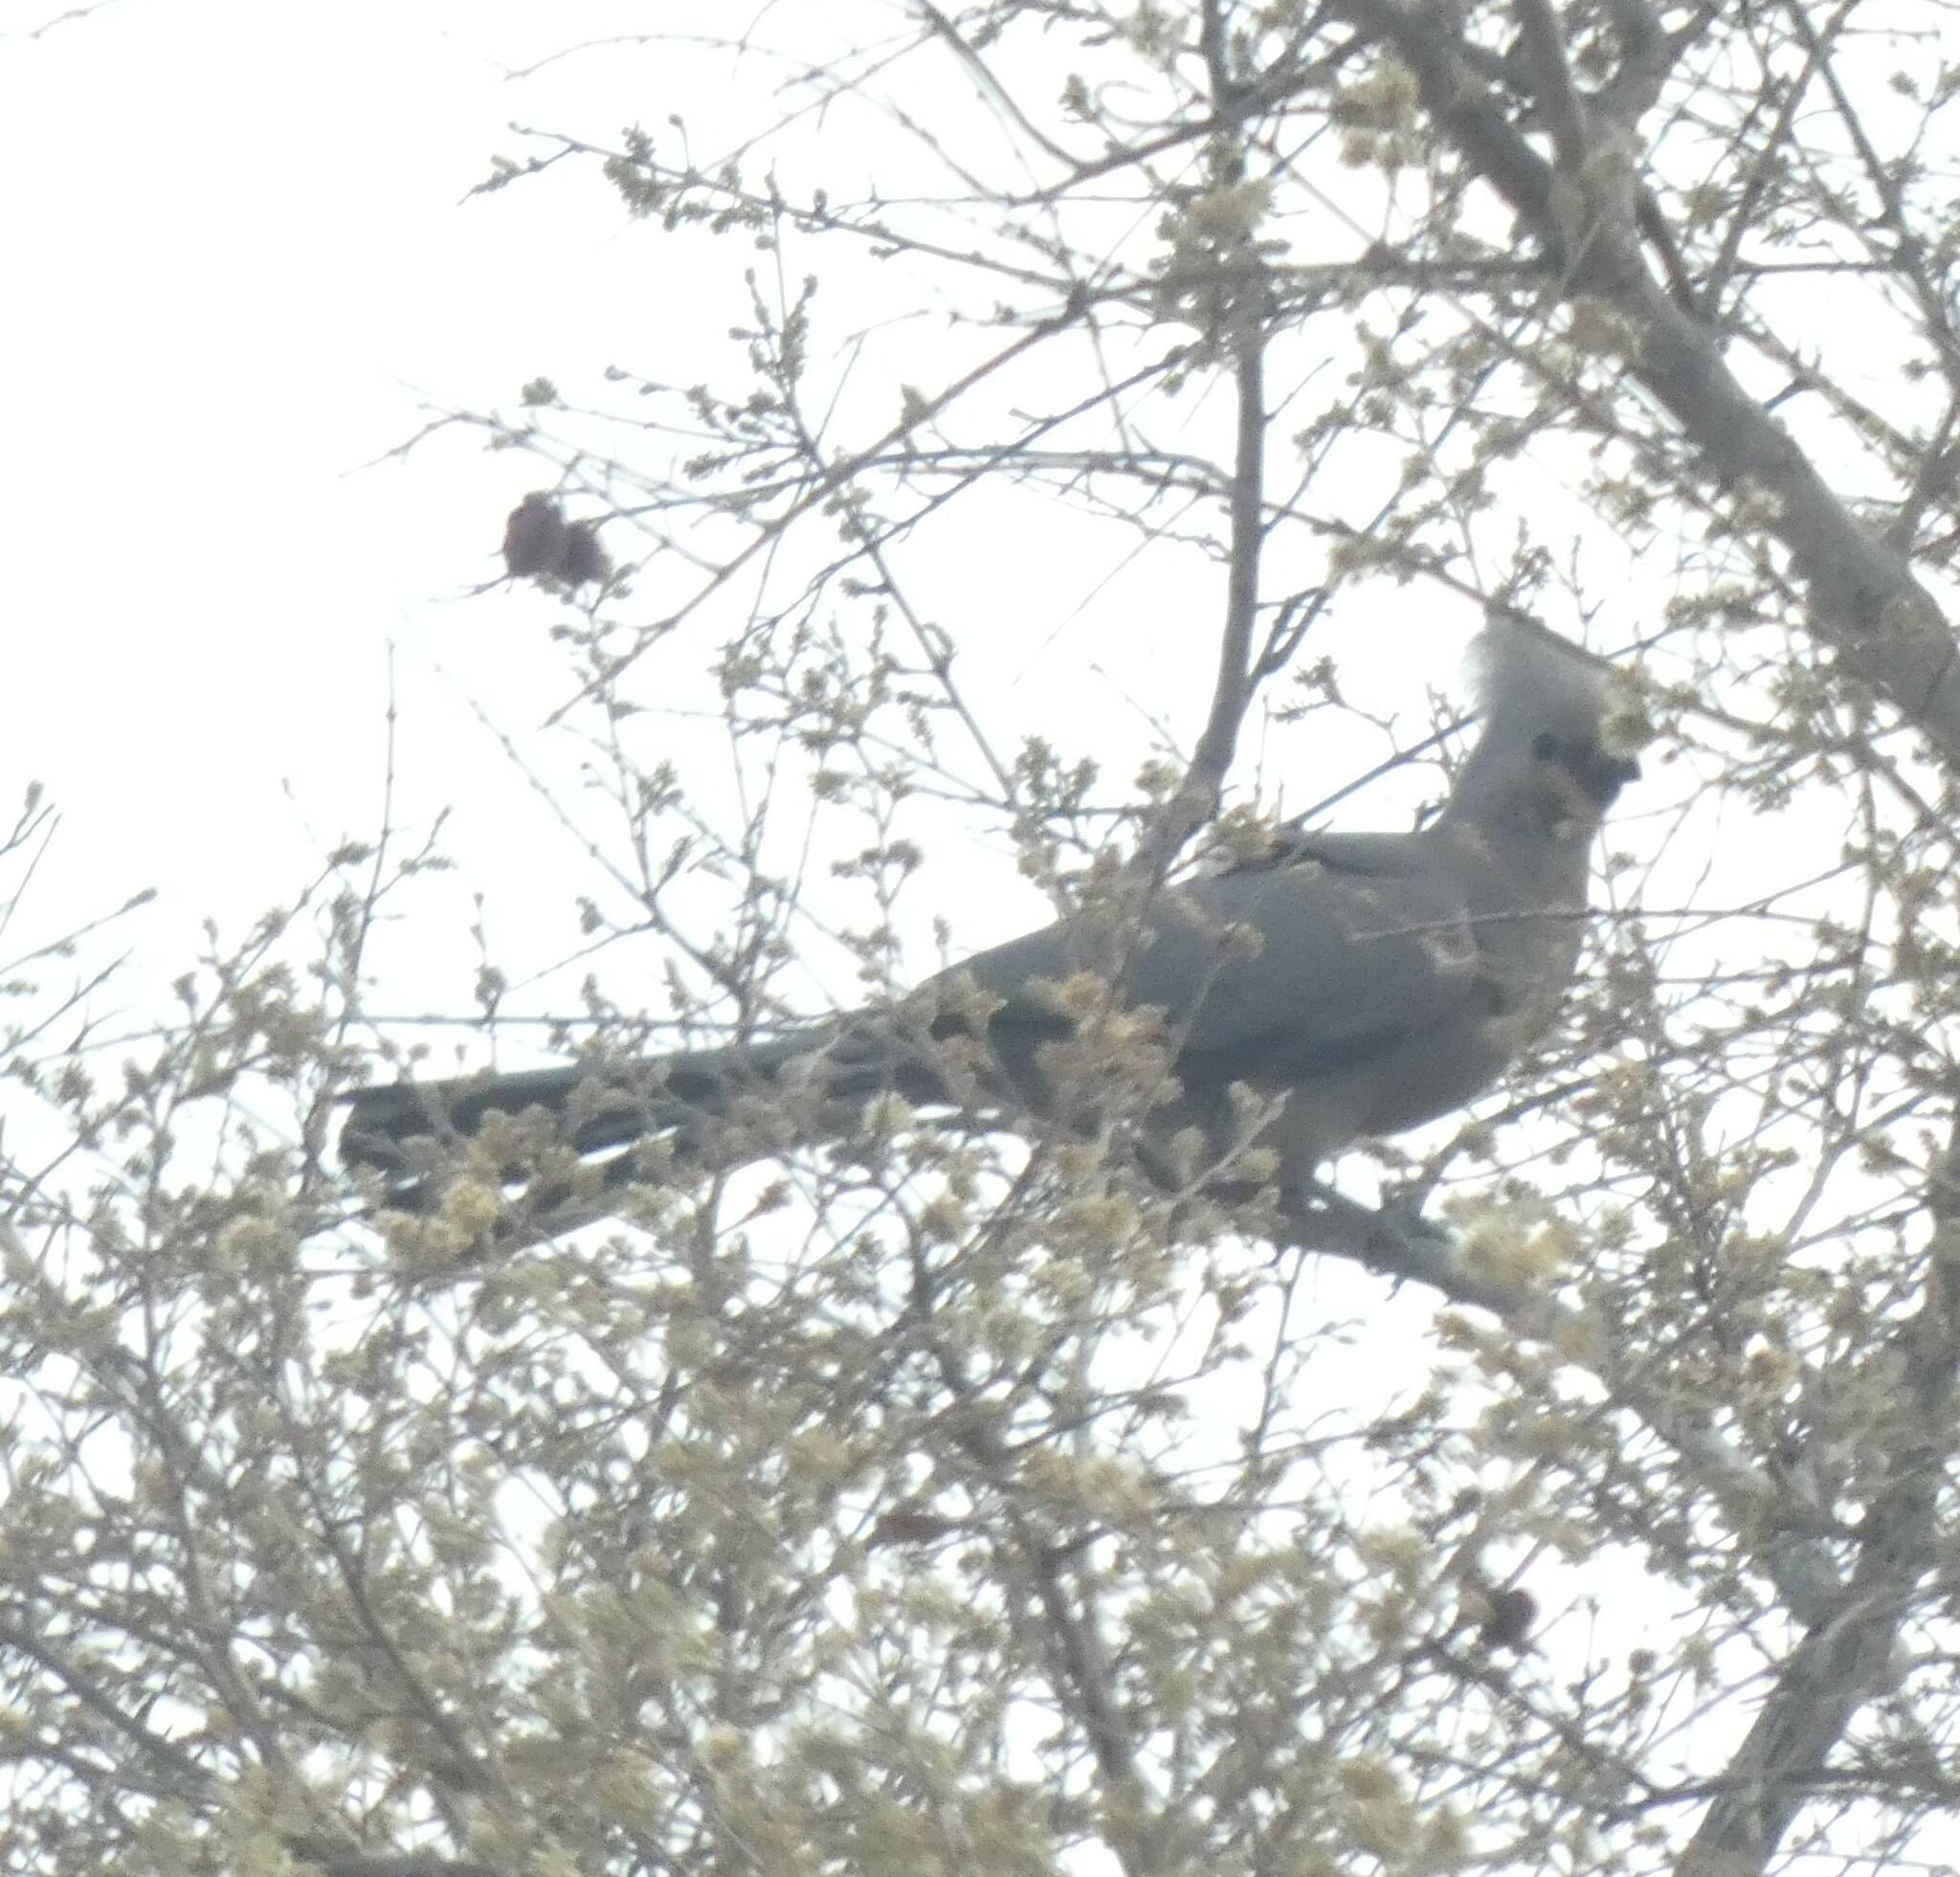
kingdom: Animalia
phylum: Chordata
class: Aves
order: Musophagiformes
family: Musophagidae
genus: Corythaixoides
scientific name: Corythaixoides concolor
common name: Grey go-away-bird
